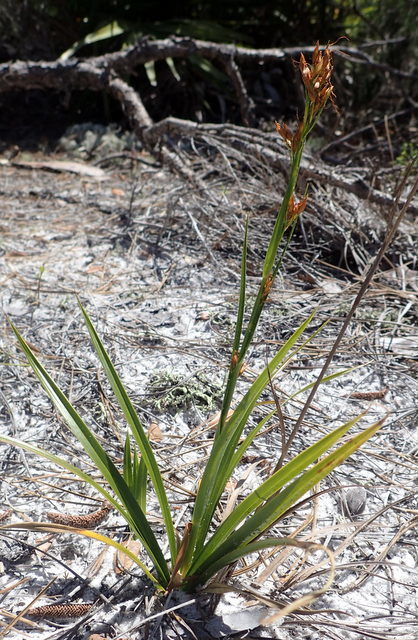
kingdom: Plantae
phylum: Tracheophyta
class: Liliopsida
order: Poales
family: Cyperaceae
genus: Rhynchospora
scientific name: Rhynchospora megalocarpa
